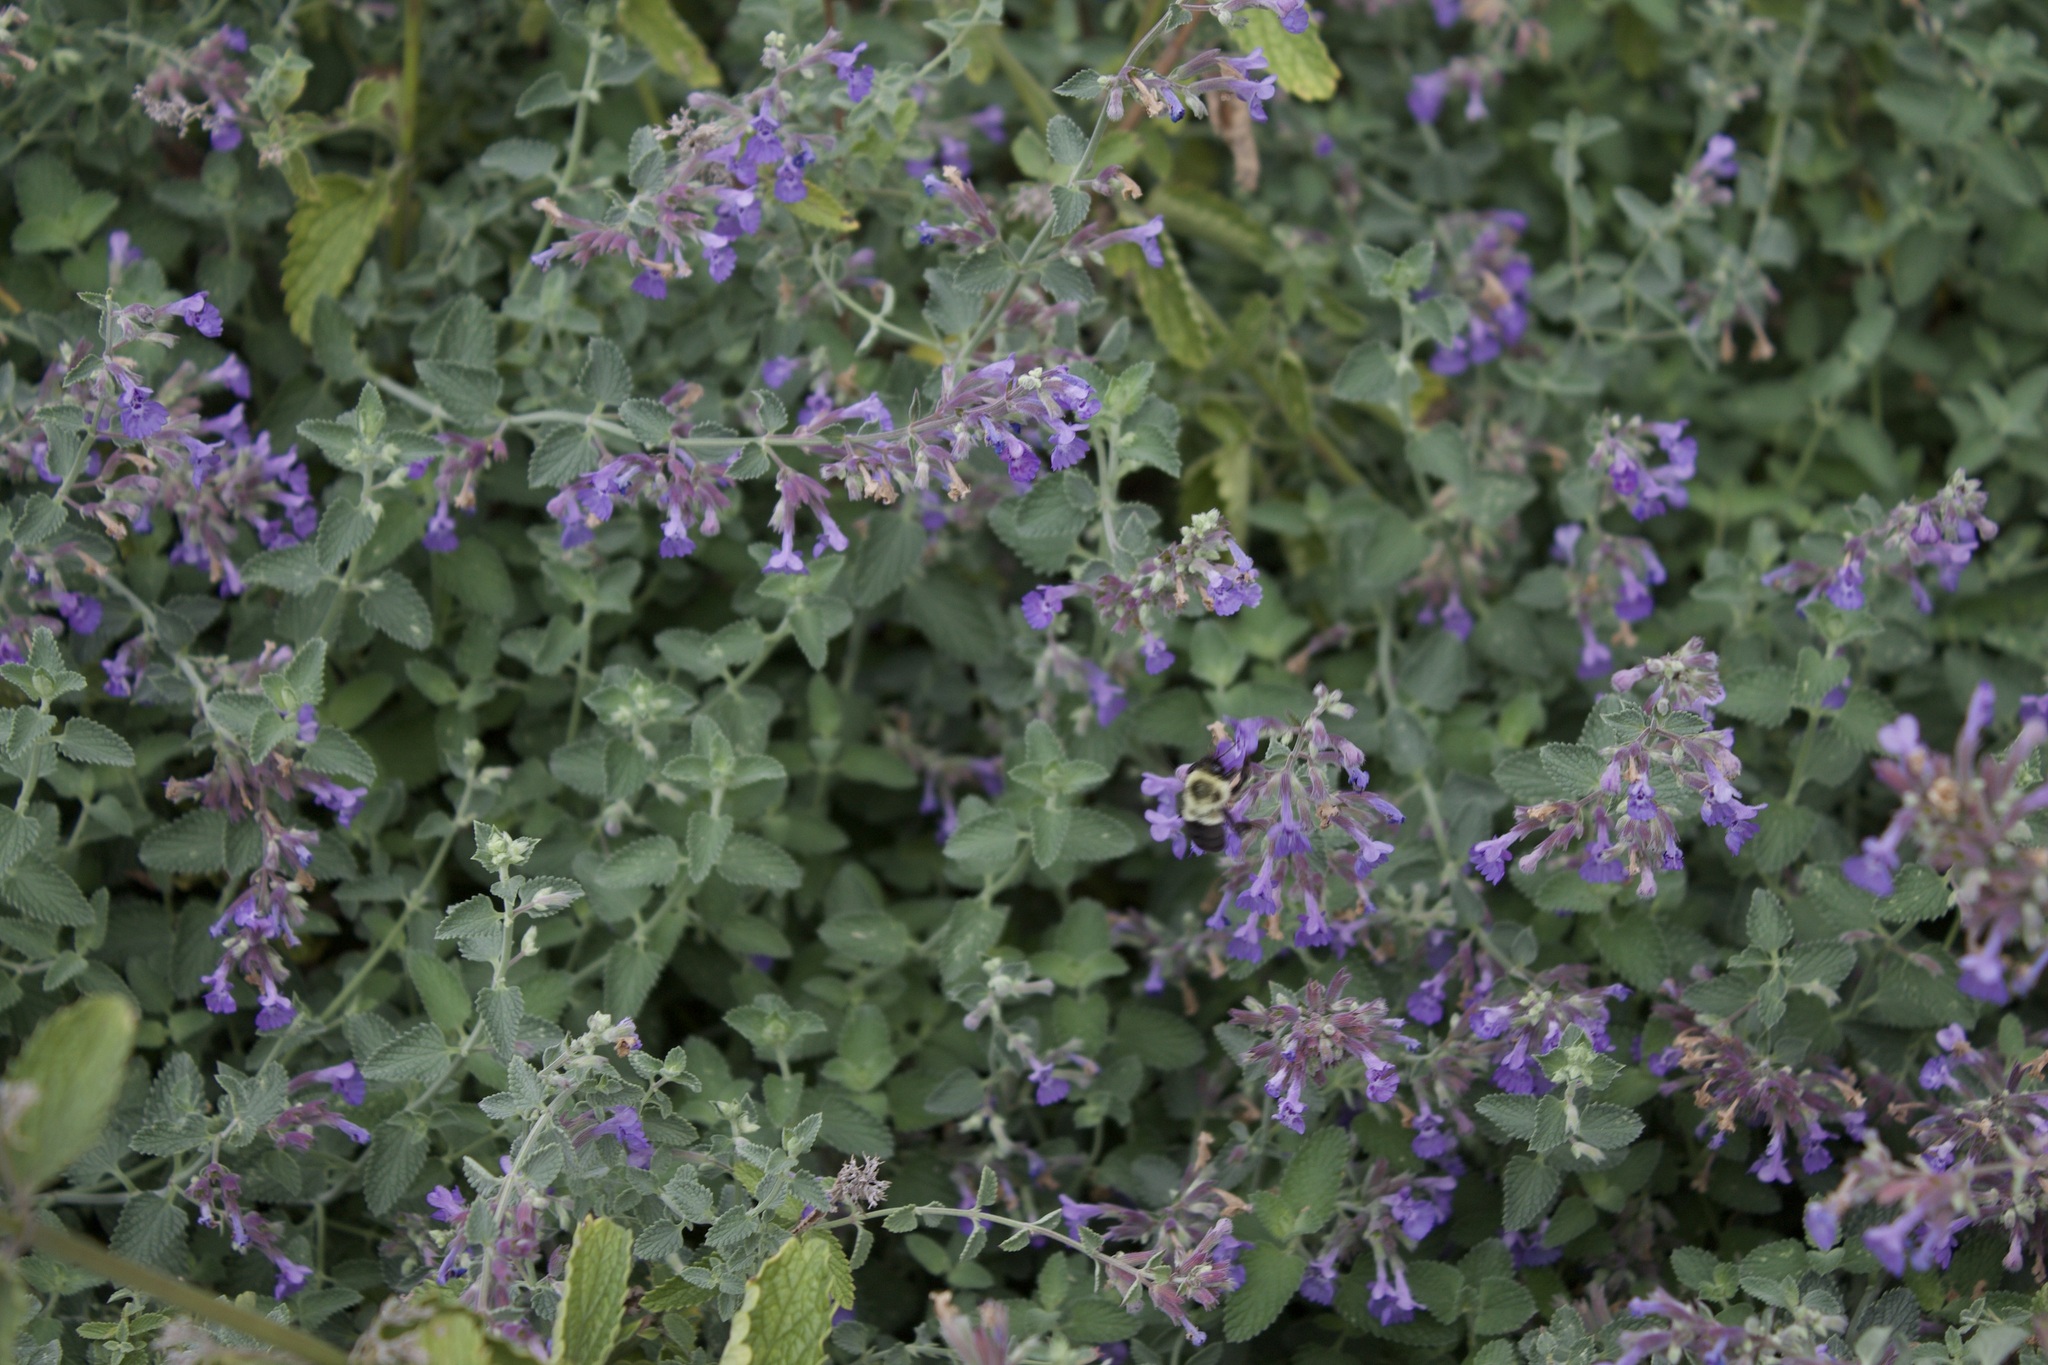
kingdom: Animalia
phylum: Arthropoda
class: Insecta
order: Hymenoptera
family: Apidae
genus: Bombus
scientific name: Bombus impatiens
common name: Common eastern bumble bee
